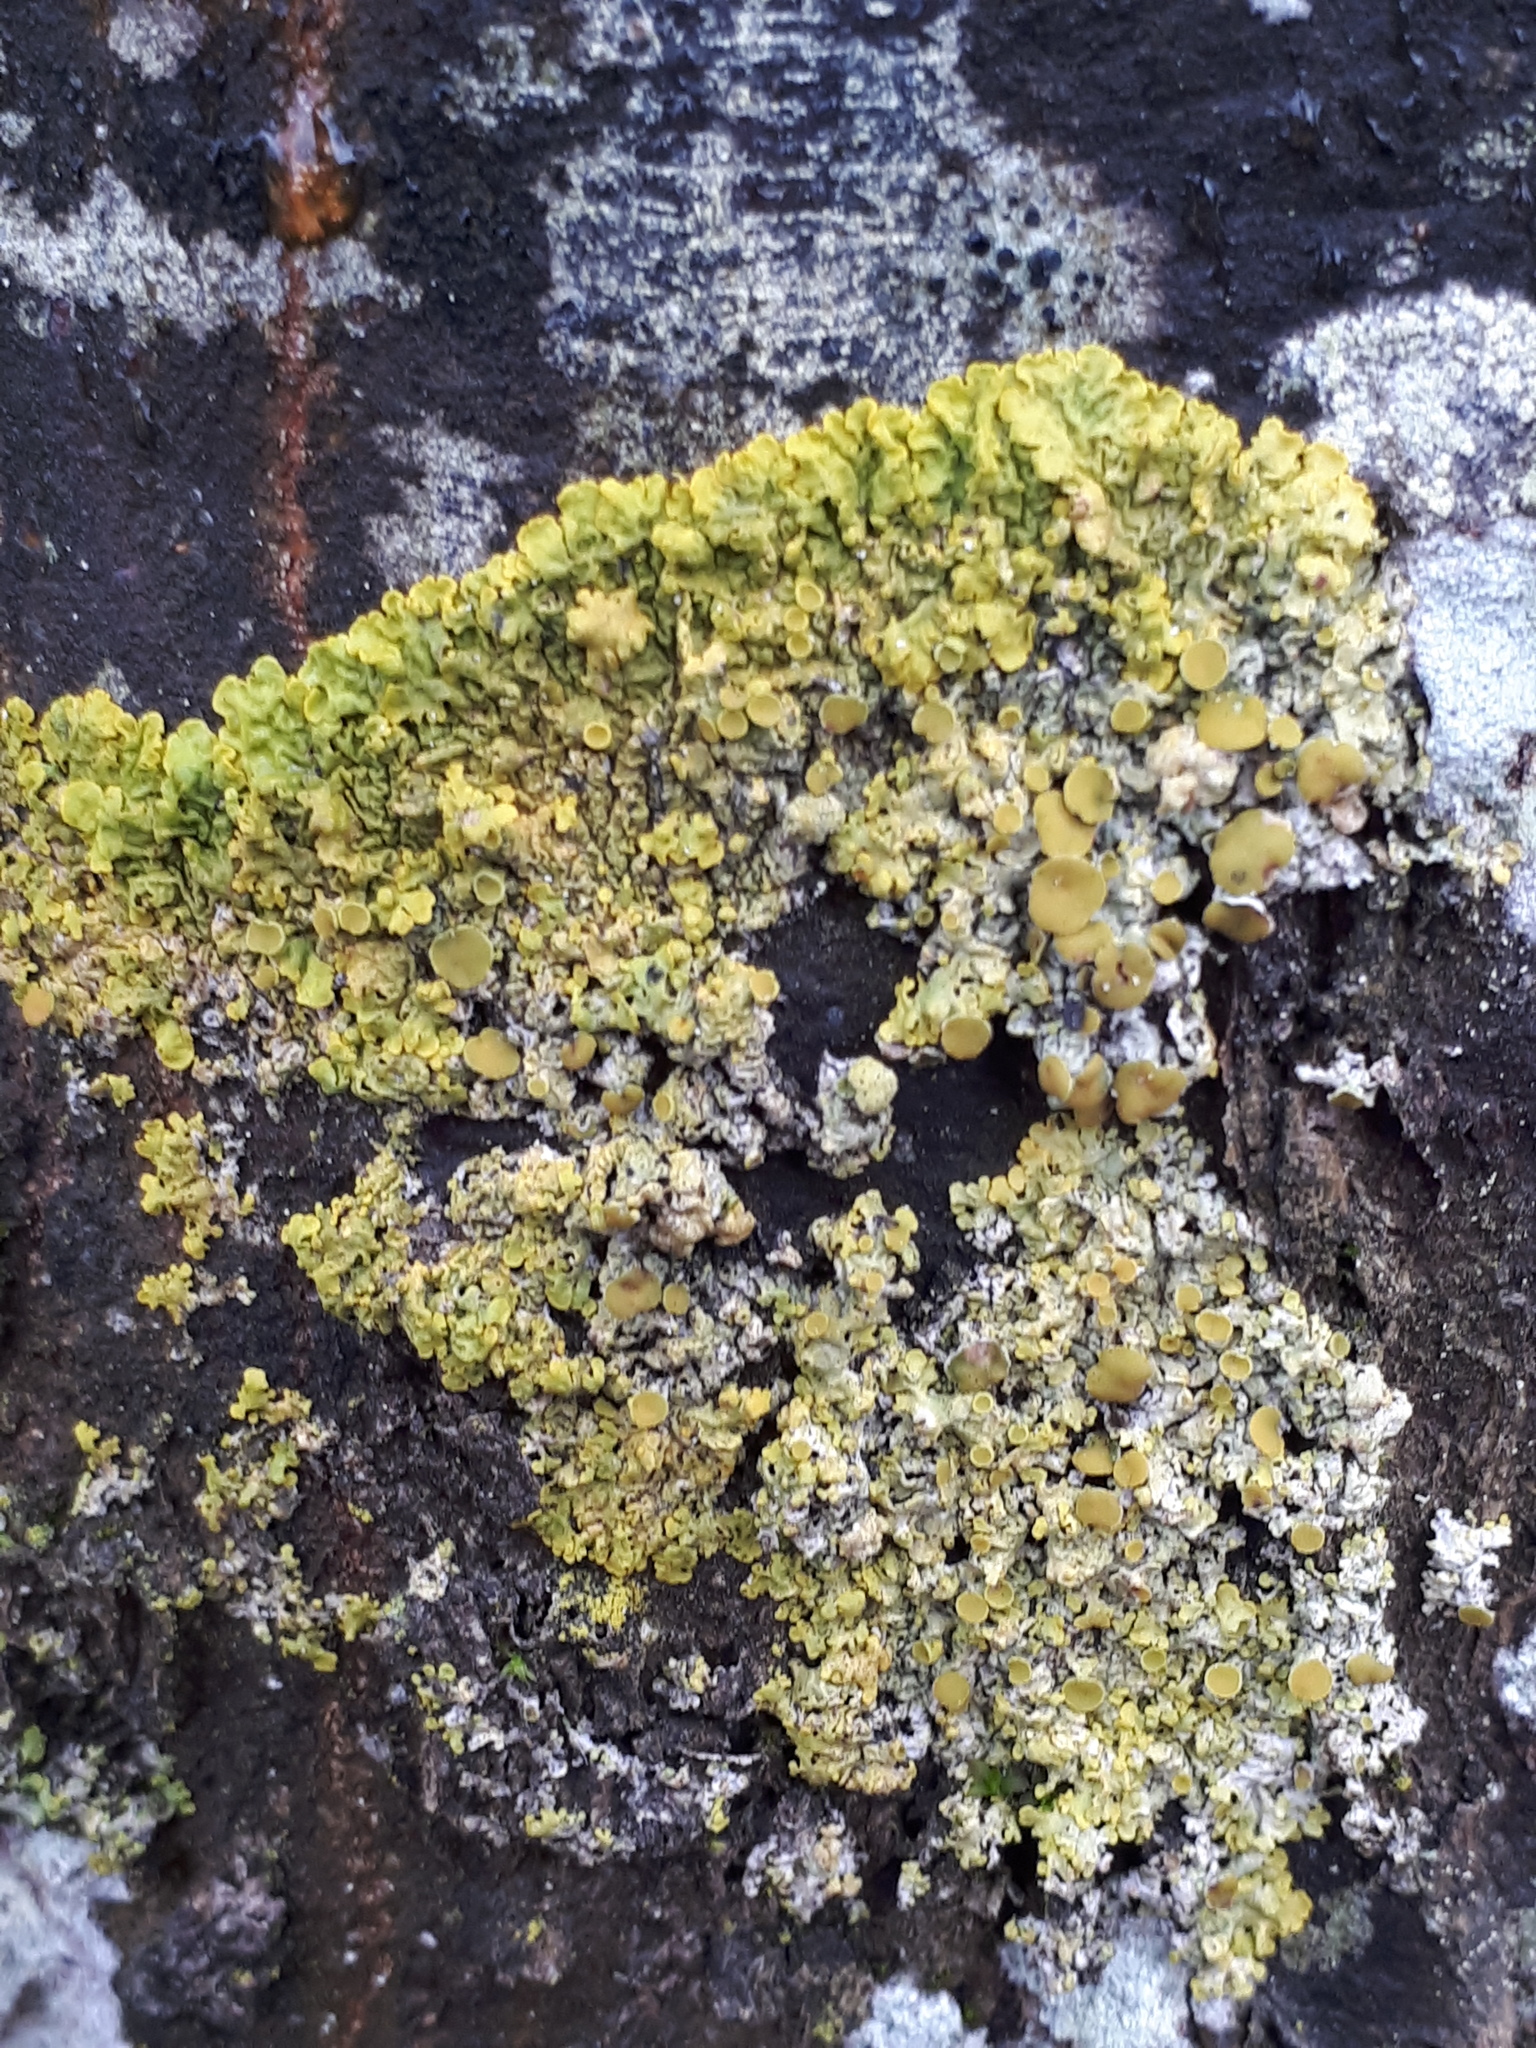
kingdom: Fungi
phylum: Ascomycota
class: Lecanoromycetes
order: Teloschistales
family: Teloschistaceae
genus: Xanthoria
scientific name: Xanthoria parietina
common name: Common orange lichen
